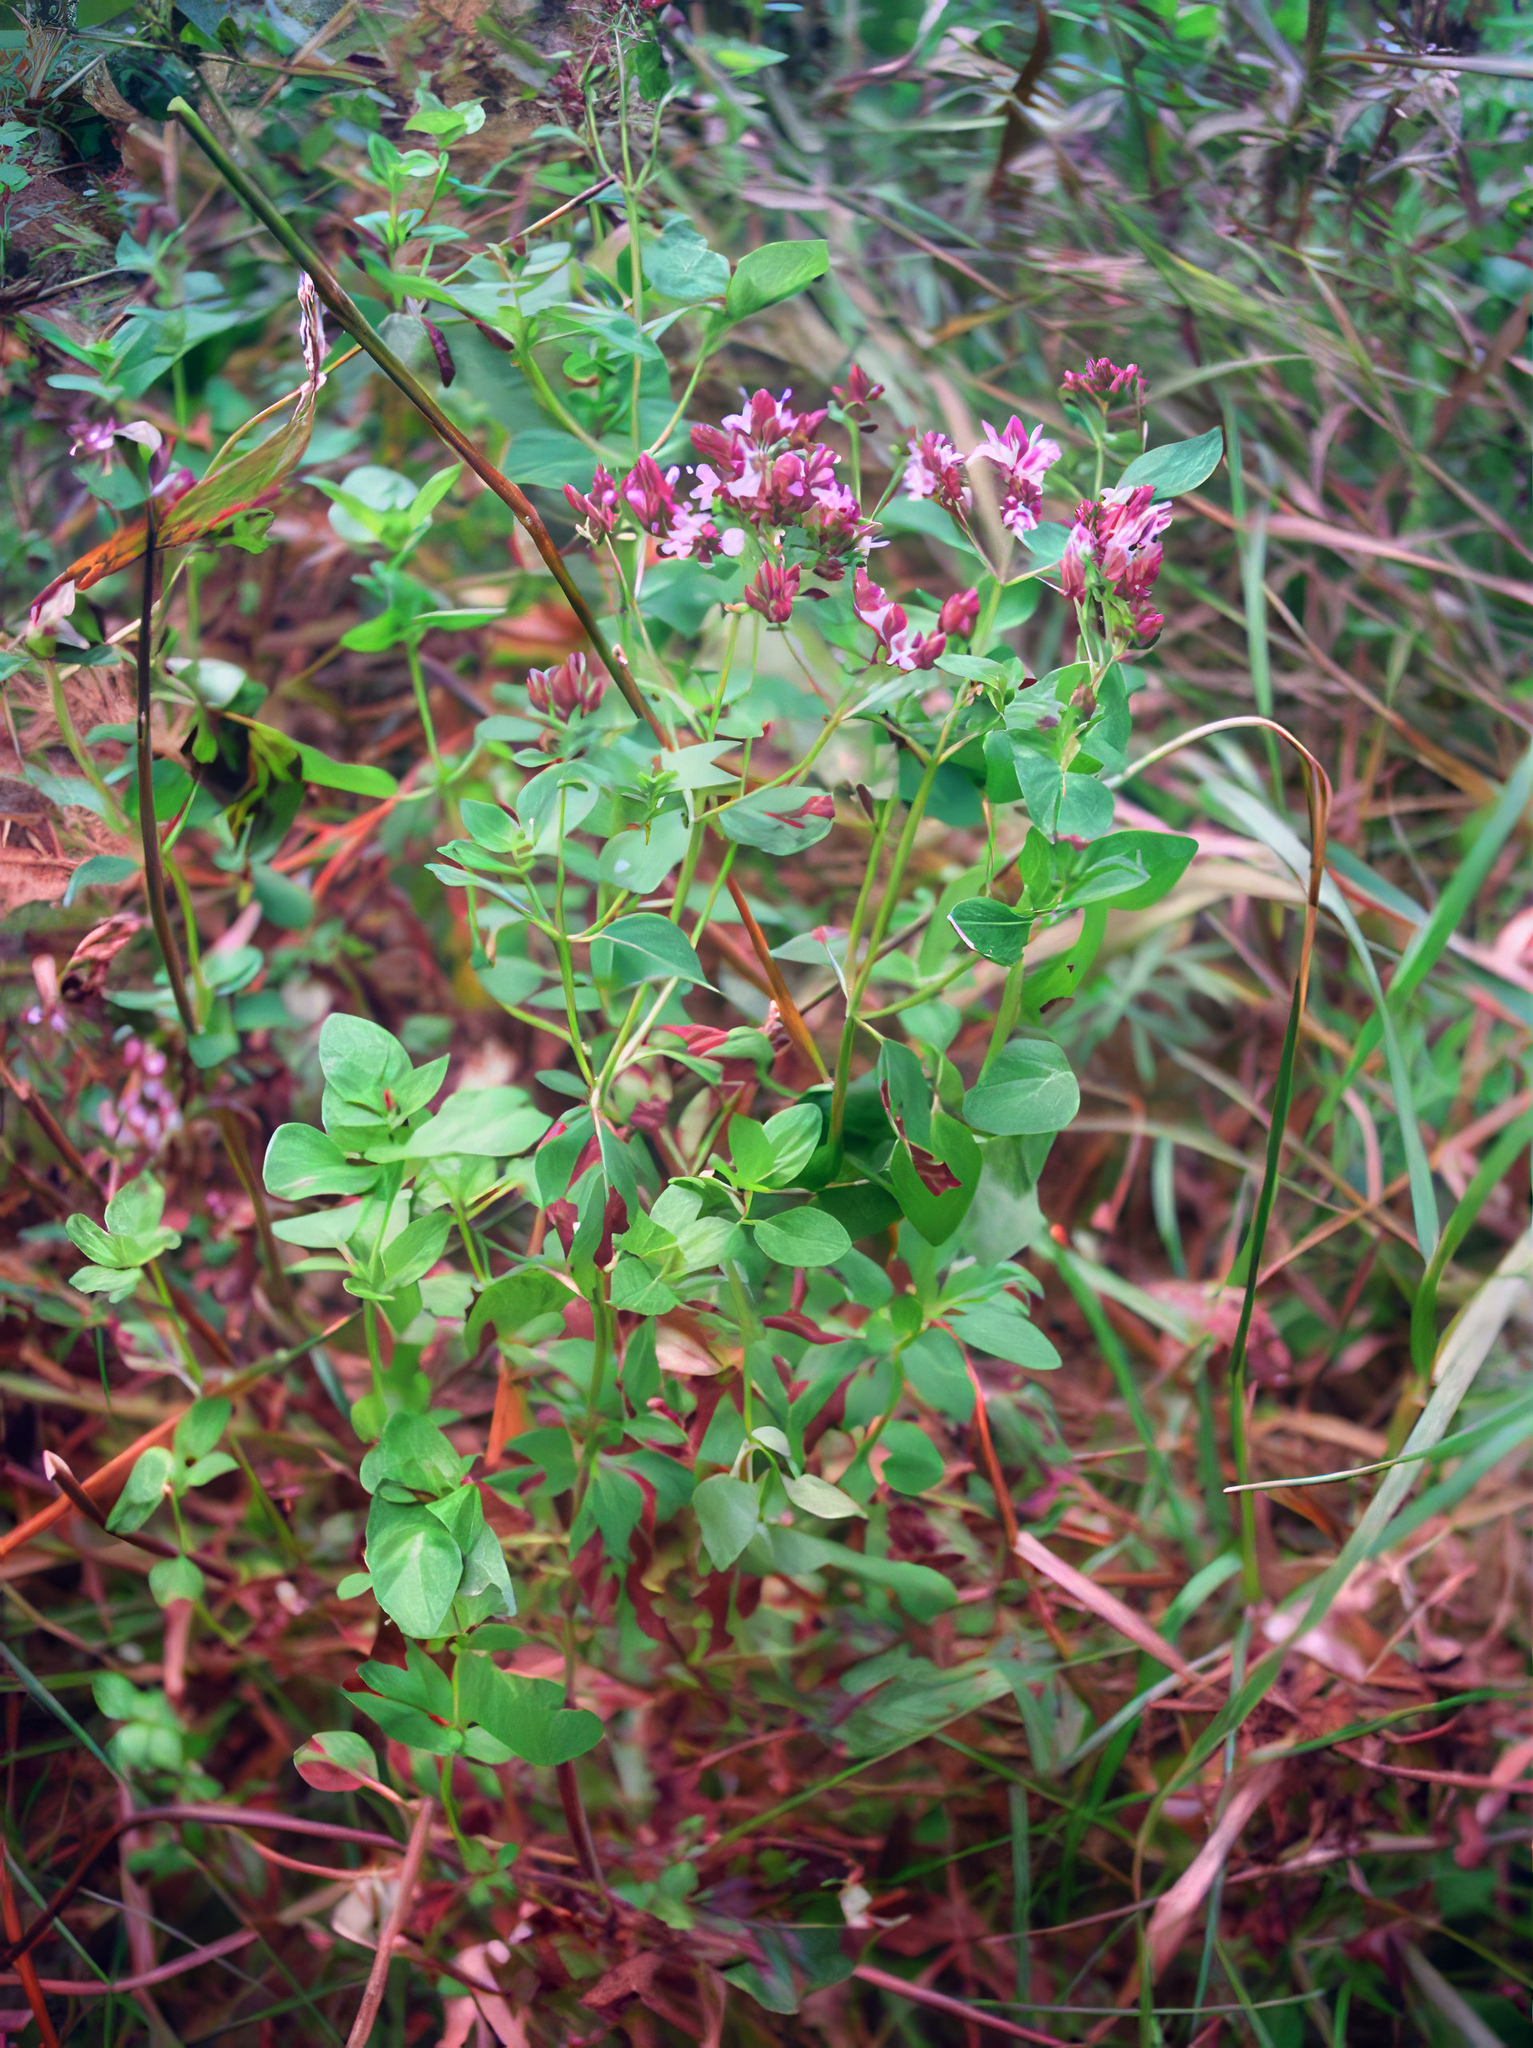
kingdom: Plantae
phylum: Tracheophyta
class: Magnoliopsida
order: Lamiales
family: Lamiaceae
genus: Origanum
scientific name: Origanum vulgare
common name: Wild marjoram
